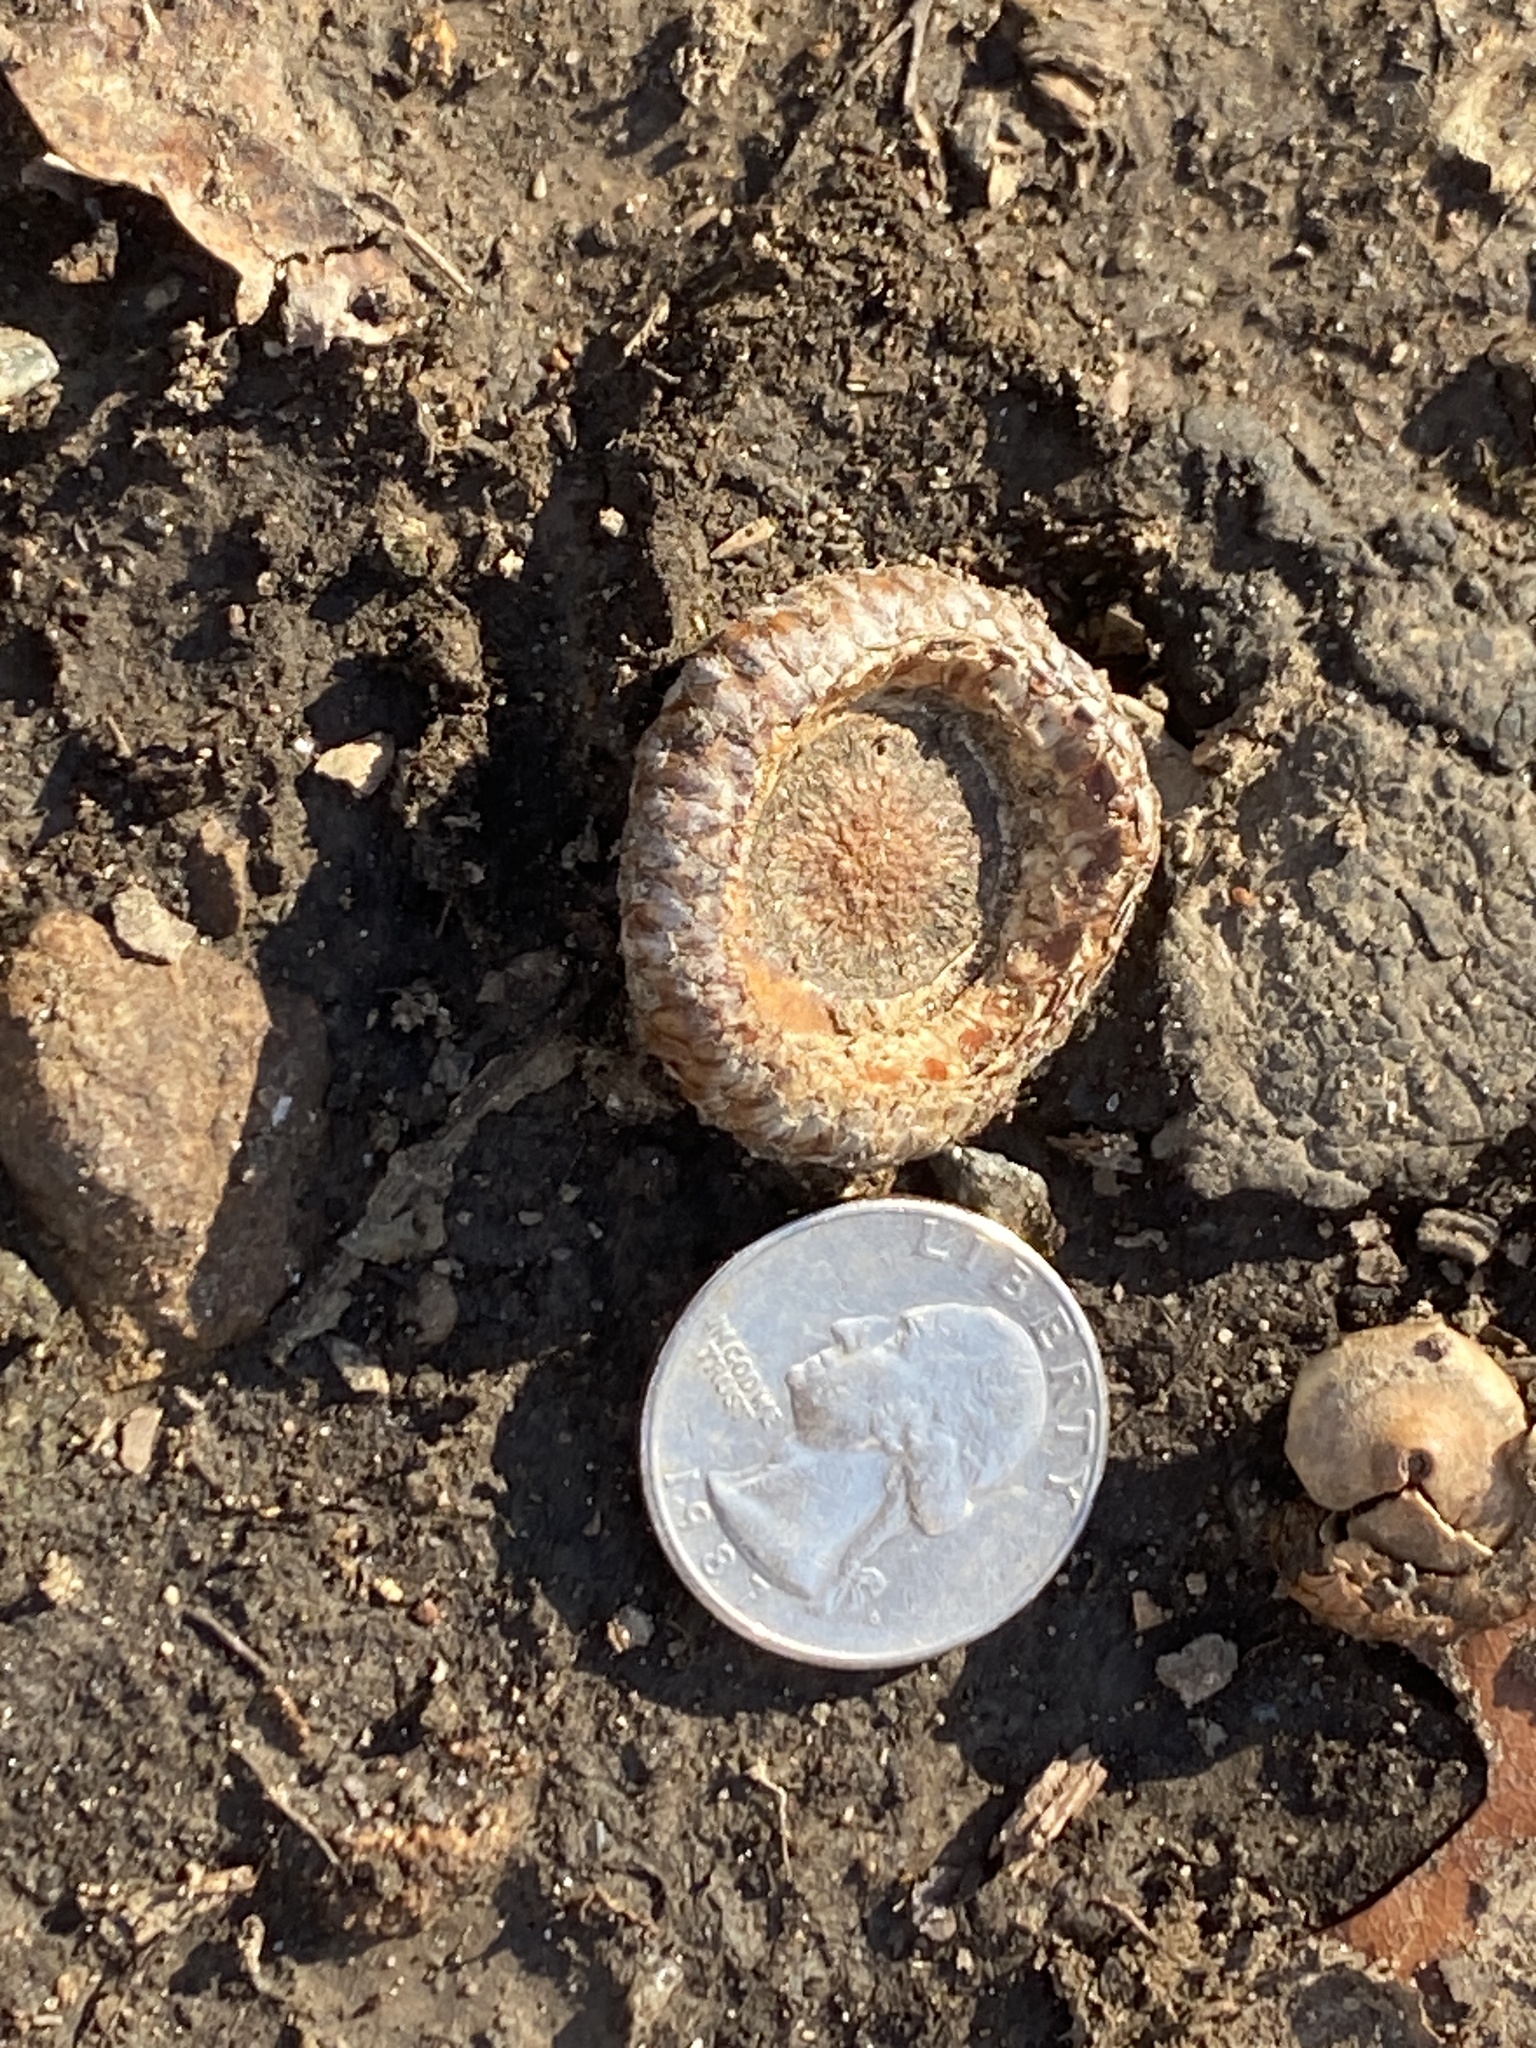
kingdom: Plantae
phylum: Tracheophyta
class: Magnoliopsida
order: Fagales
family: Fagaceae
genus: Quercus
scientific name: Quercus rubra
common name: Red oak
